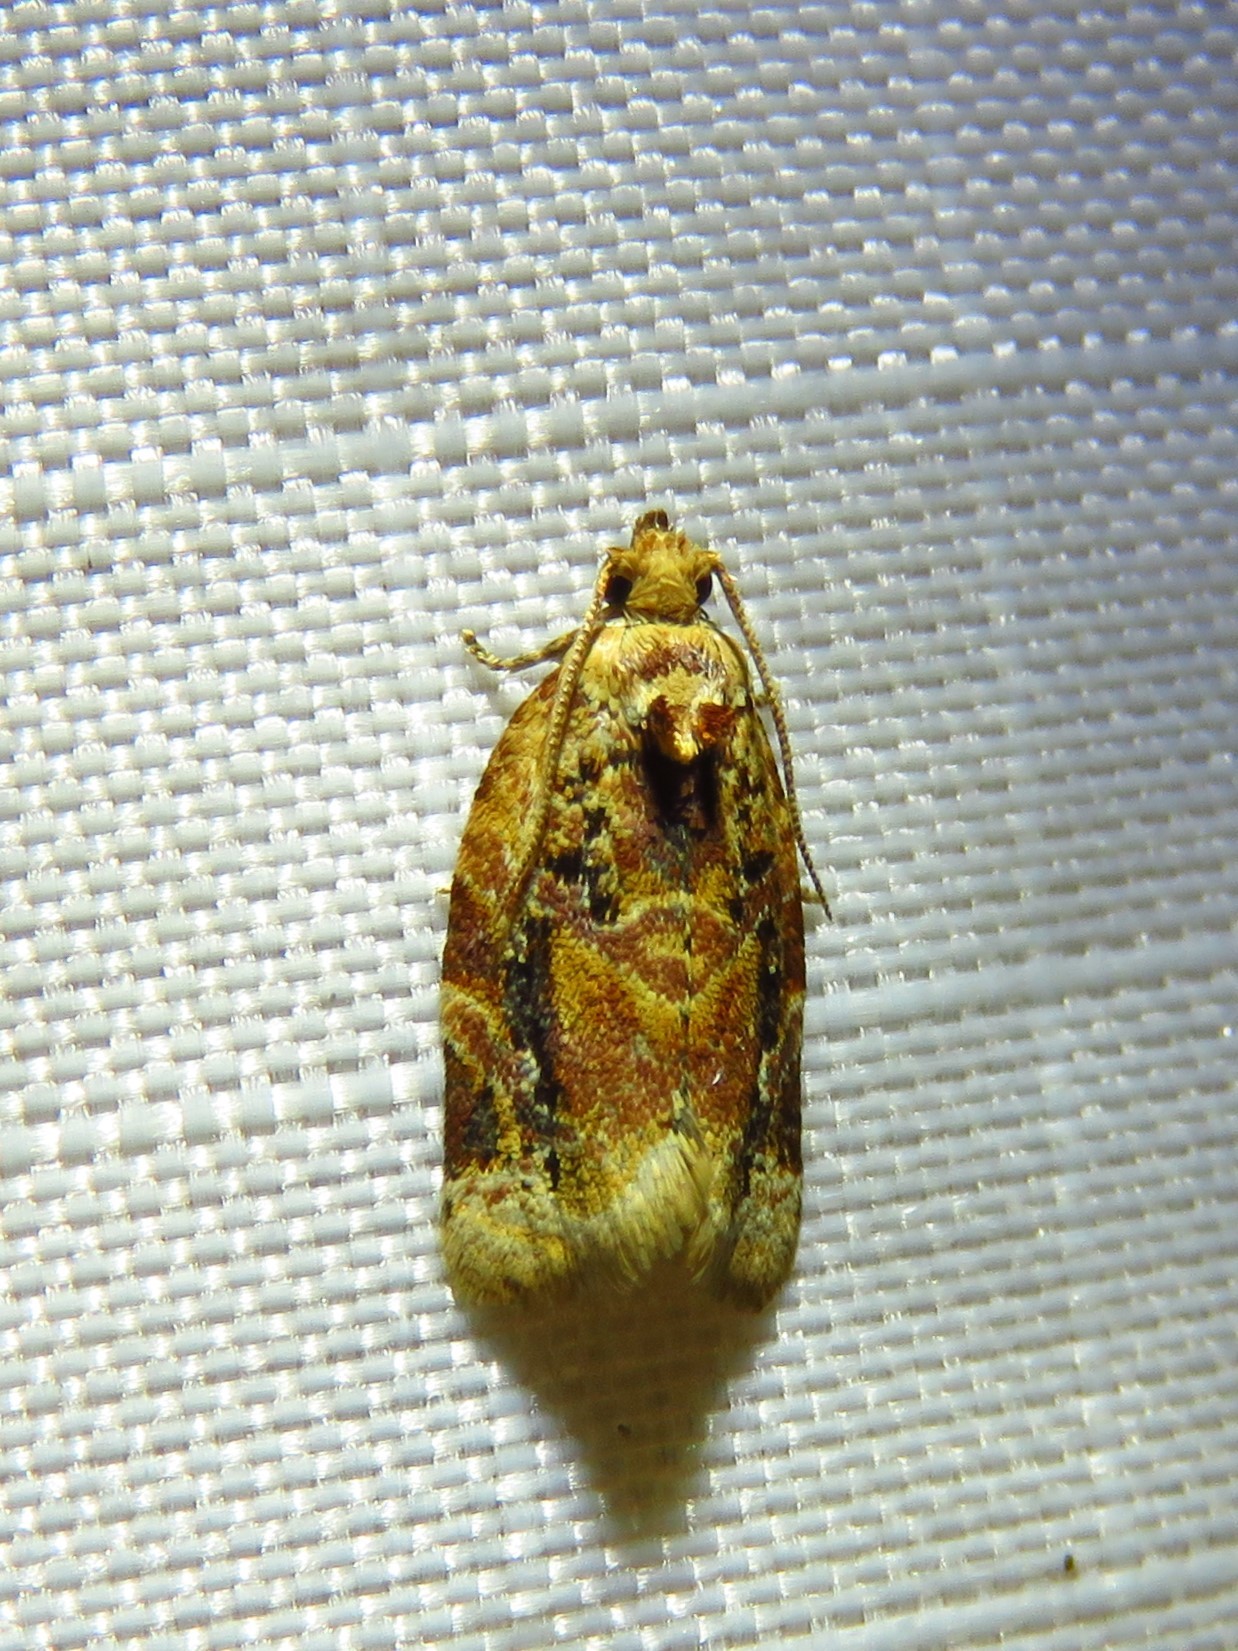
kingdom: Animalia
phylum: Arthropoda
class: Insecta
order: Lepidoptera
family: Tortricidae
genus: Argyrotaenia
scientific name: Argyrotaenia velutinana
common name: Red-banded leafroller moth
